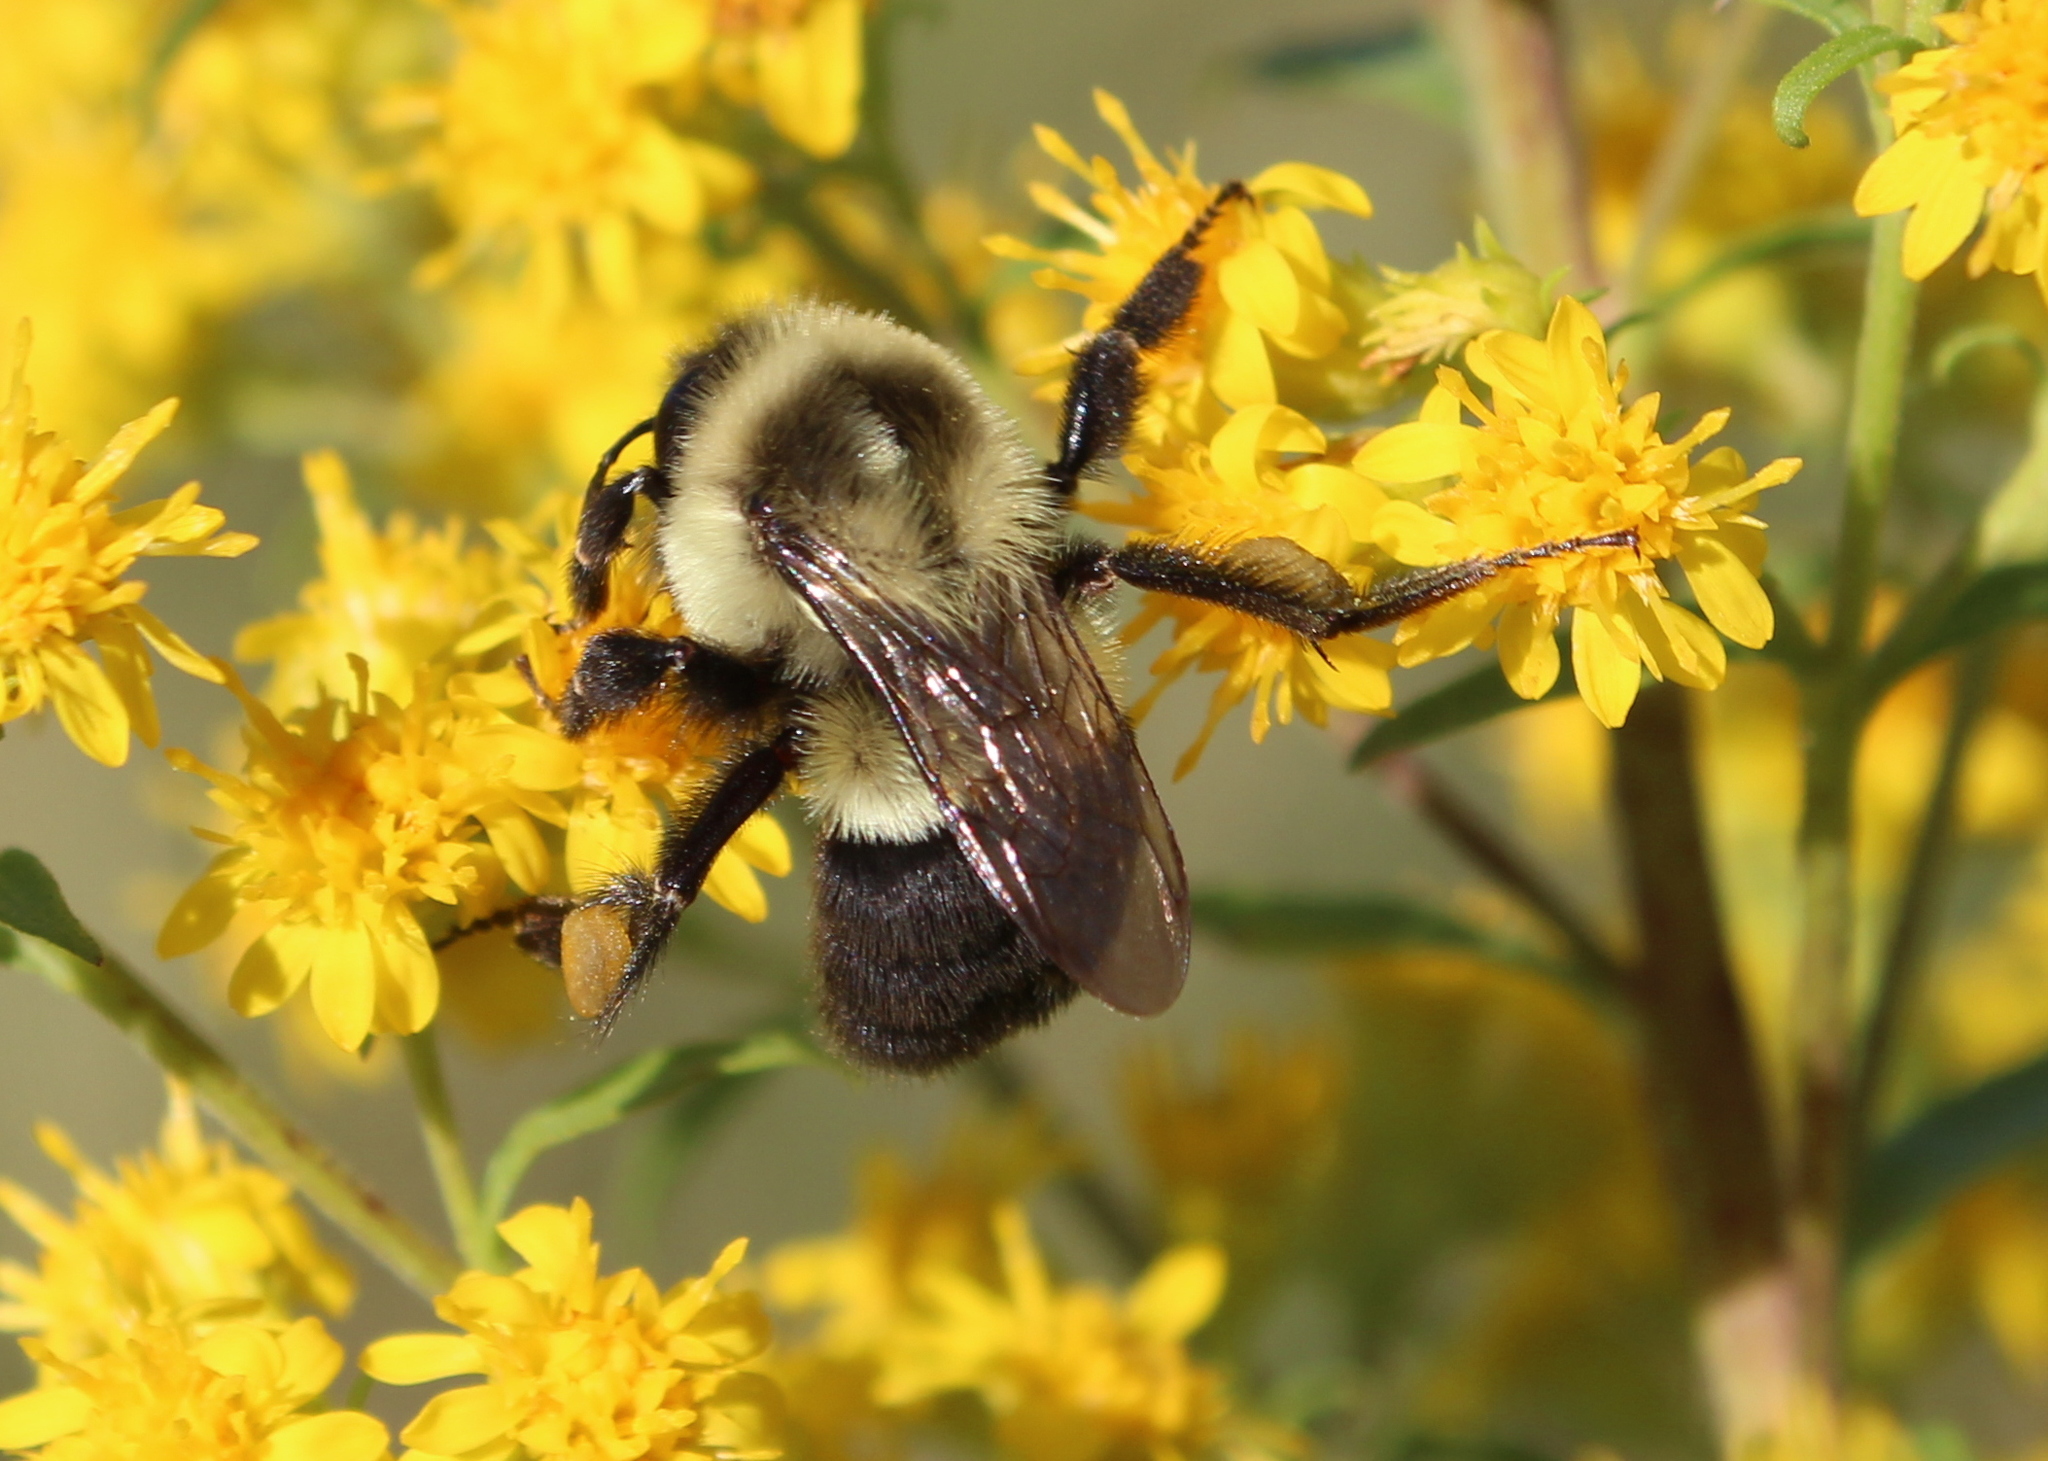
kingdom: Animalia
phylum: Arthropoda
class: Insecta
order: Hymenoptera
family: Apidae
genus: Bombus
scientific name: Bombus impatiens
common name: Common eastern bumble bee
